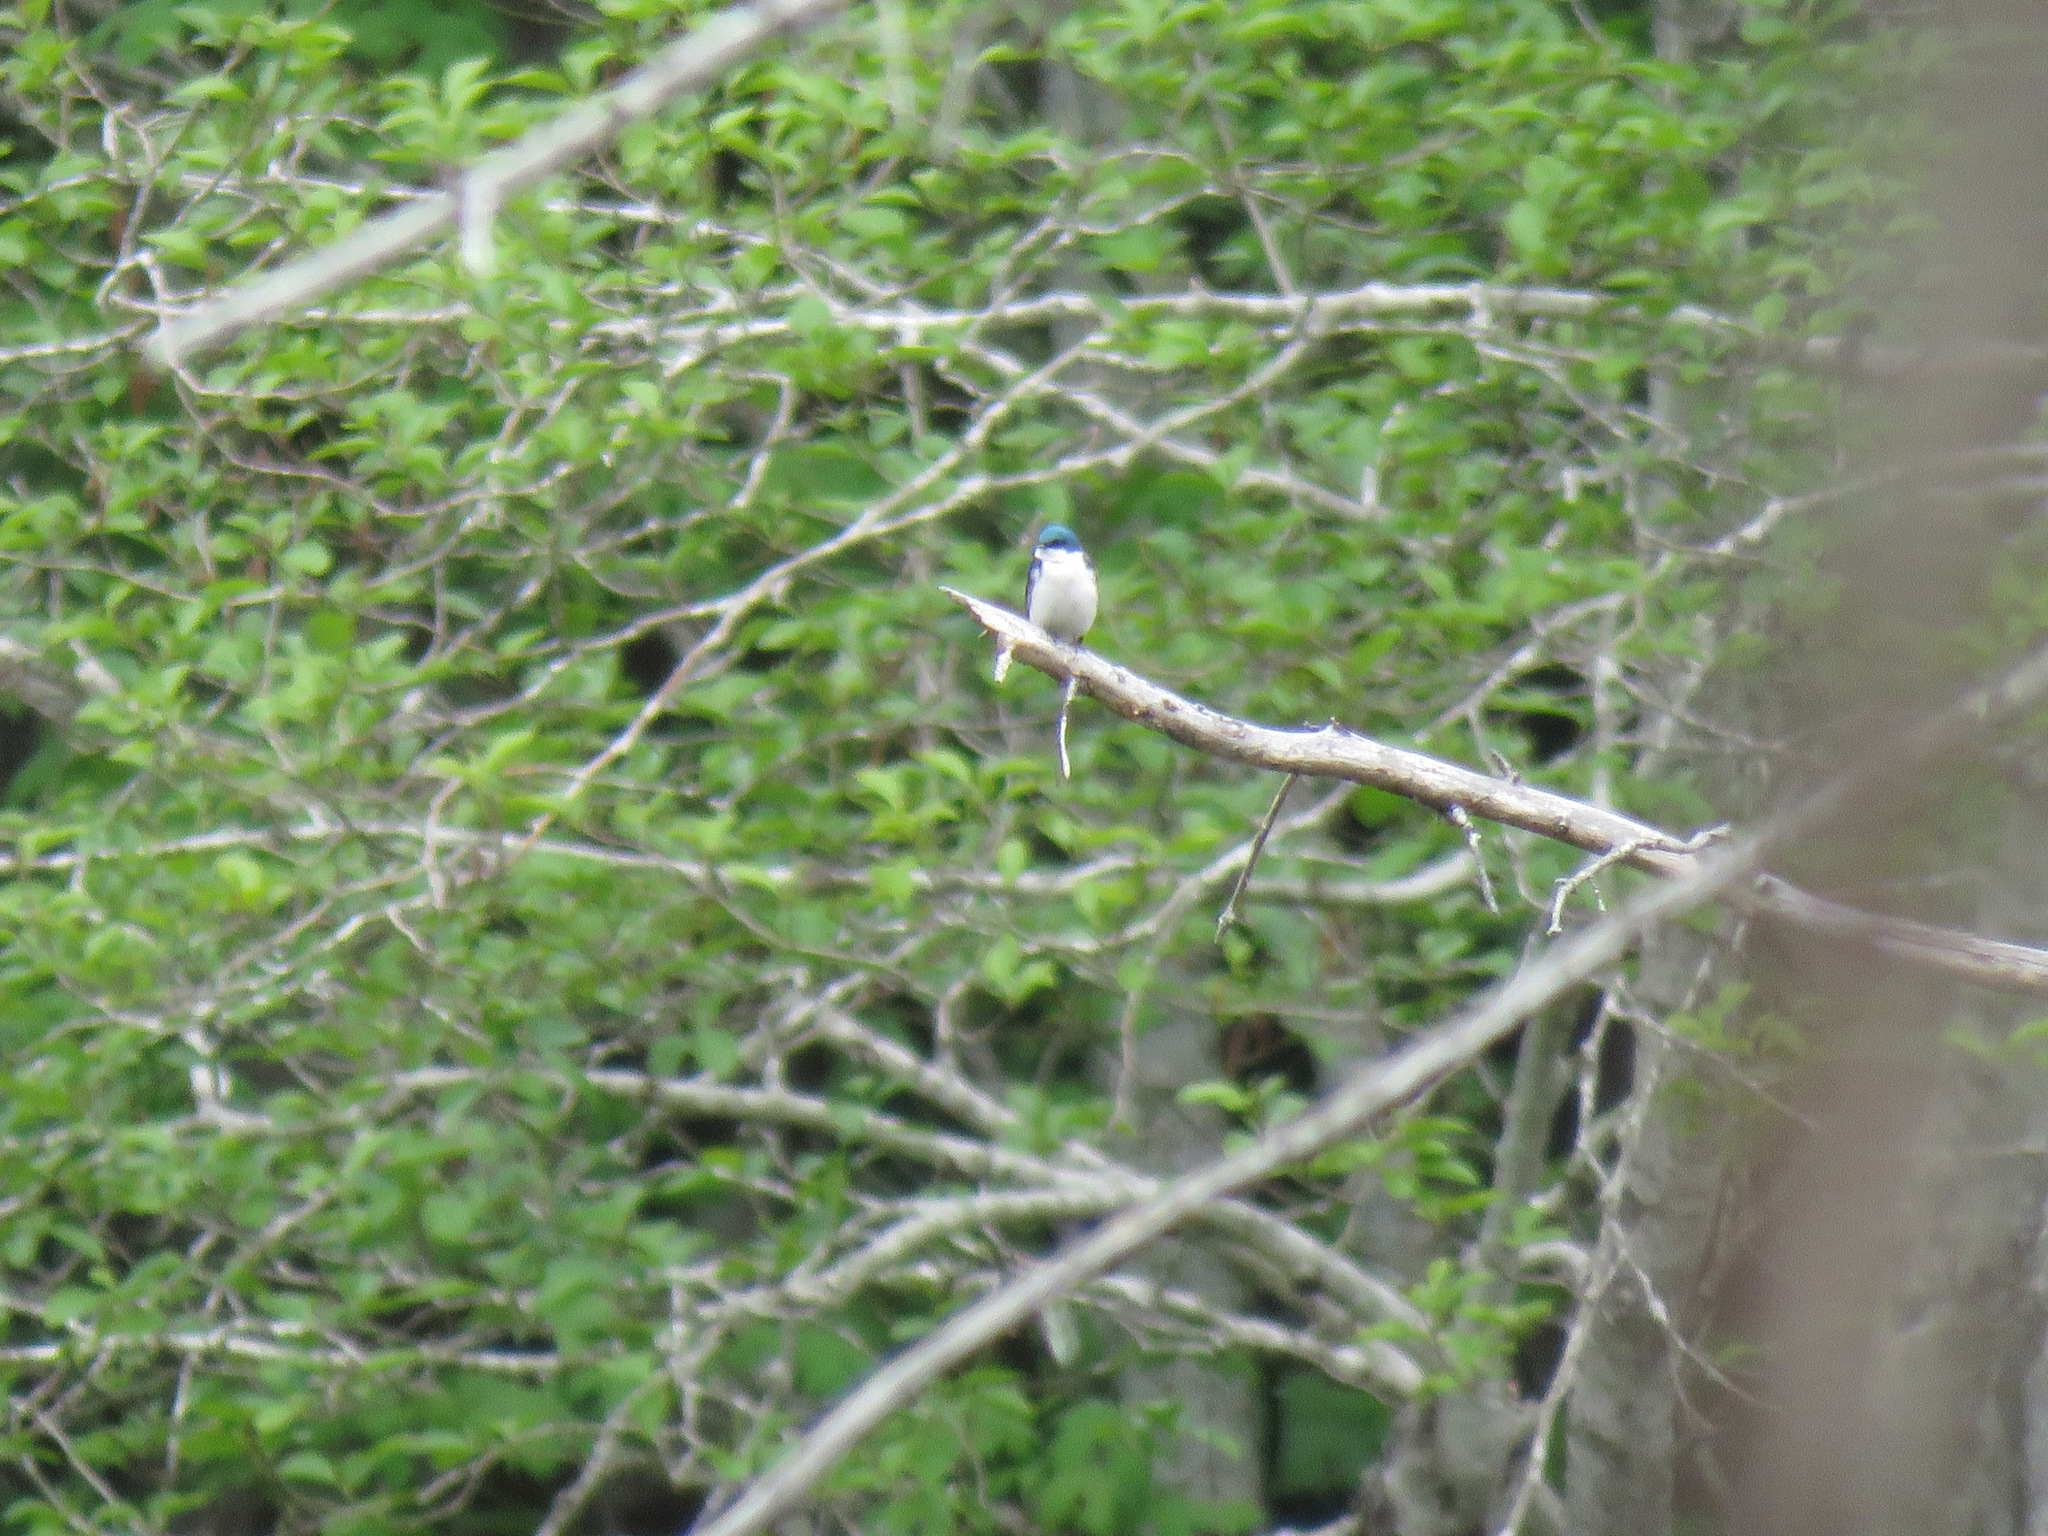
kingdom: Animalia
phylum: Chordata
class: Aves
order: Passeriformes
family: Hirundinidae
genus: Tachycineta
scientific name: Tachycineta bicolor
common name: Tree swallow
